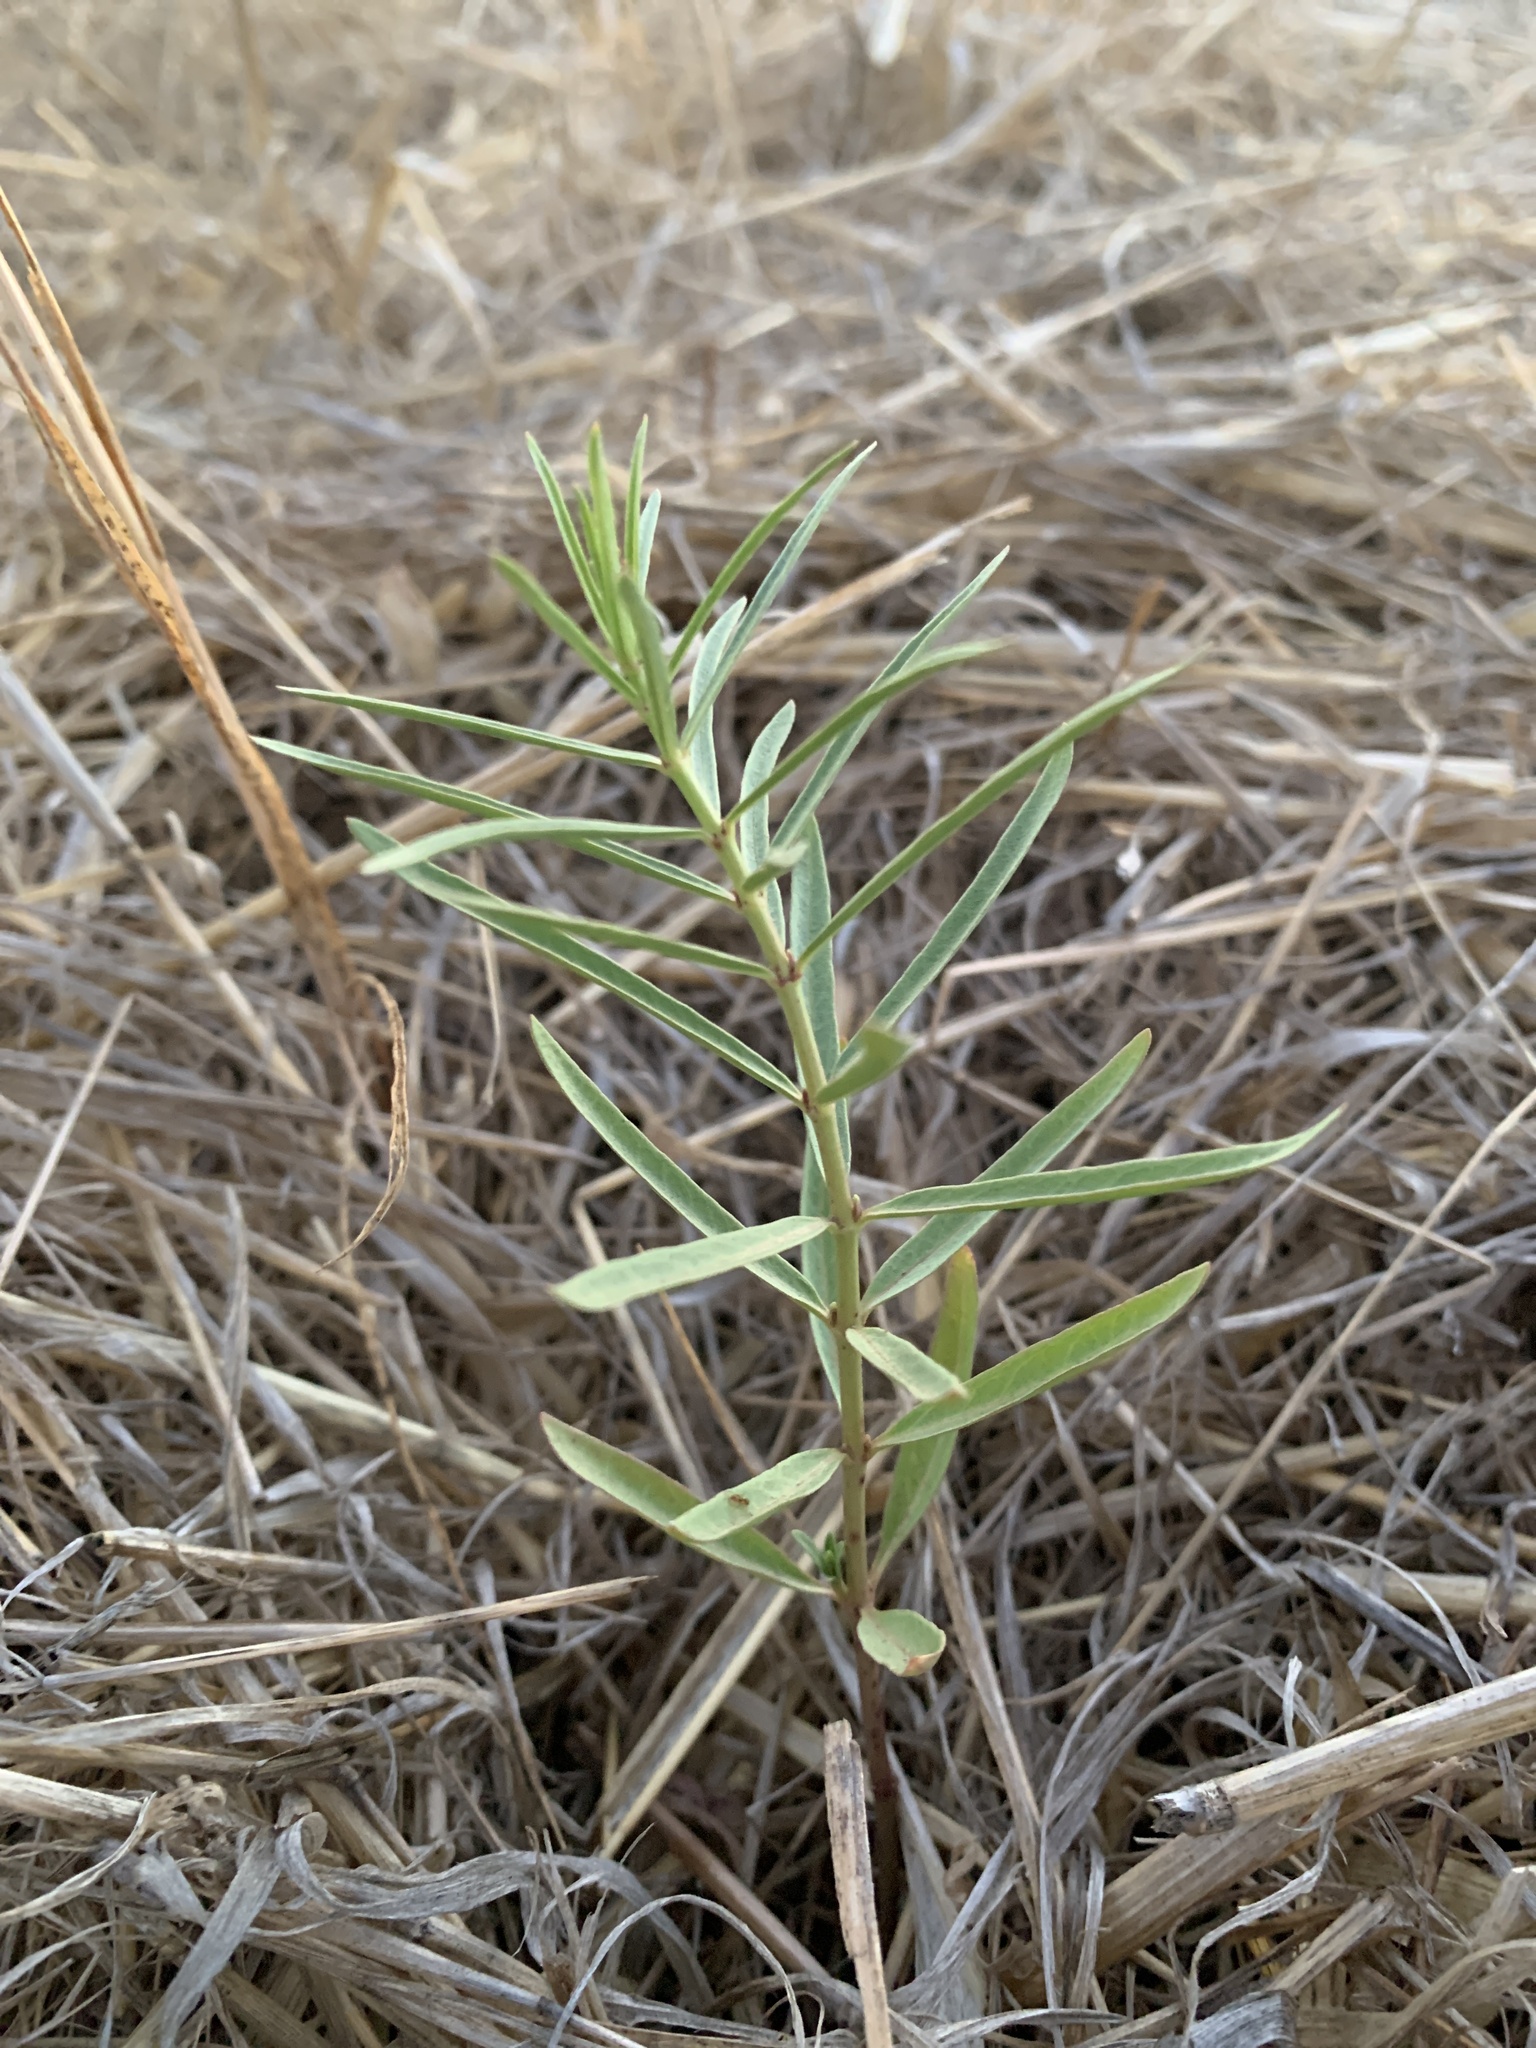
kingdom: Plantae
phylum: Tracheophyta
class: Magnoliopsida
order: Gentianales
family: Apocynaceae
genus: Asclepias
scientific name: Asclepias fascicularis
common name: Mexican milkweed
